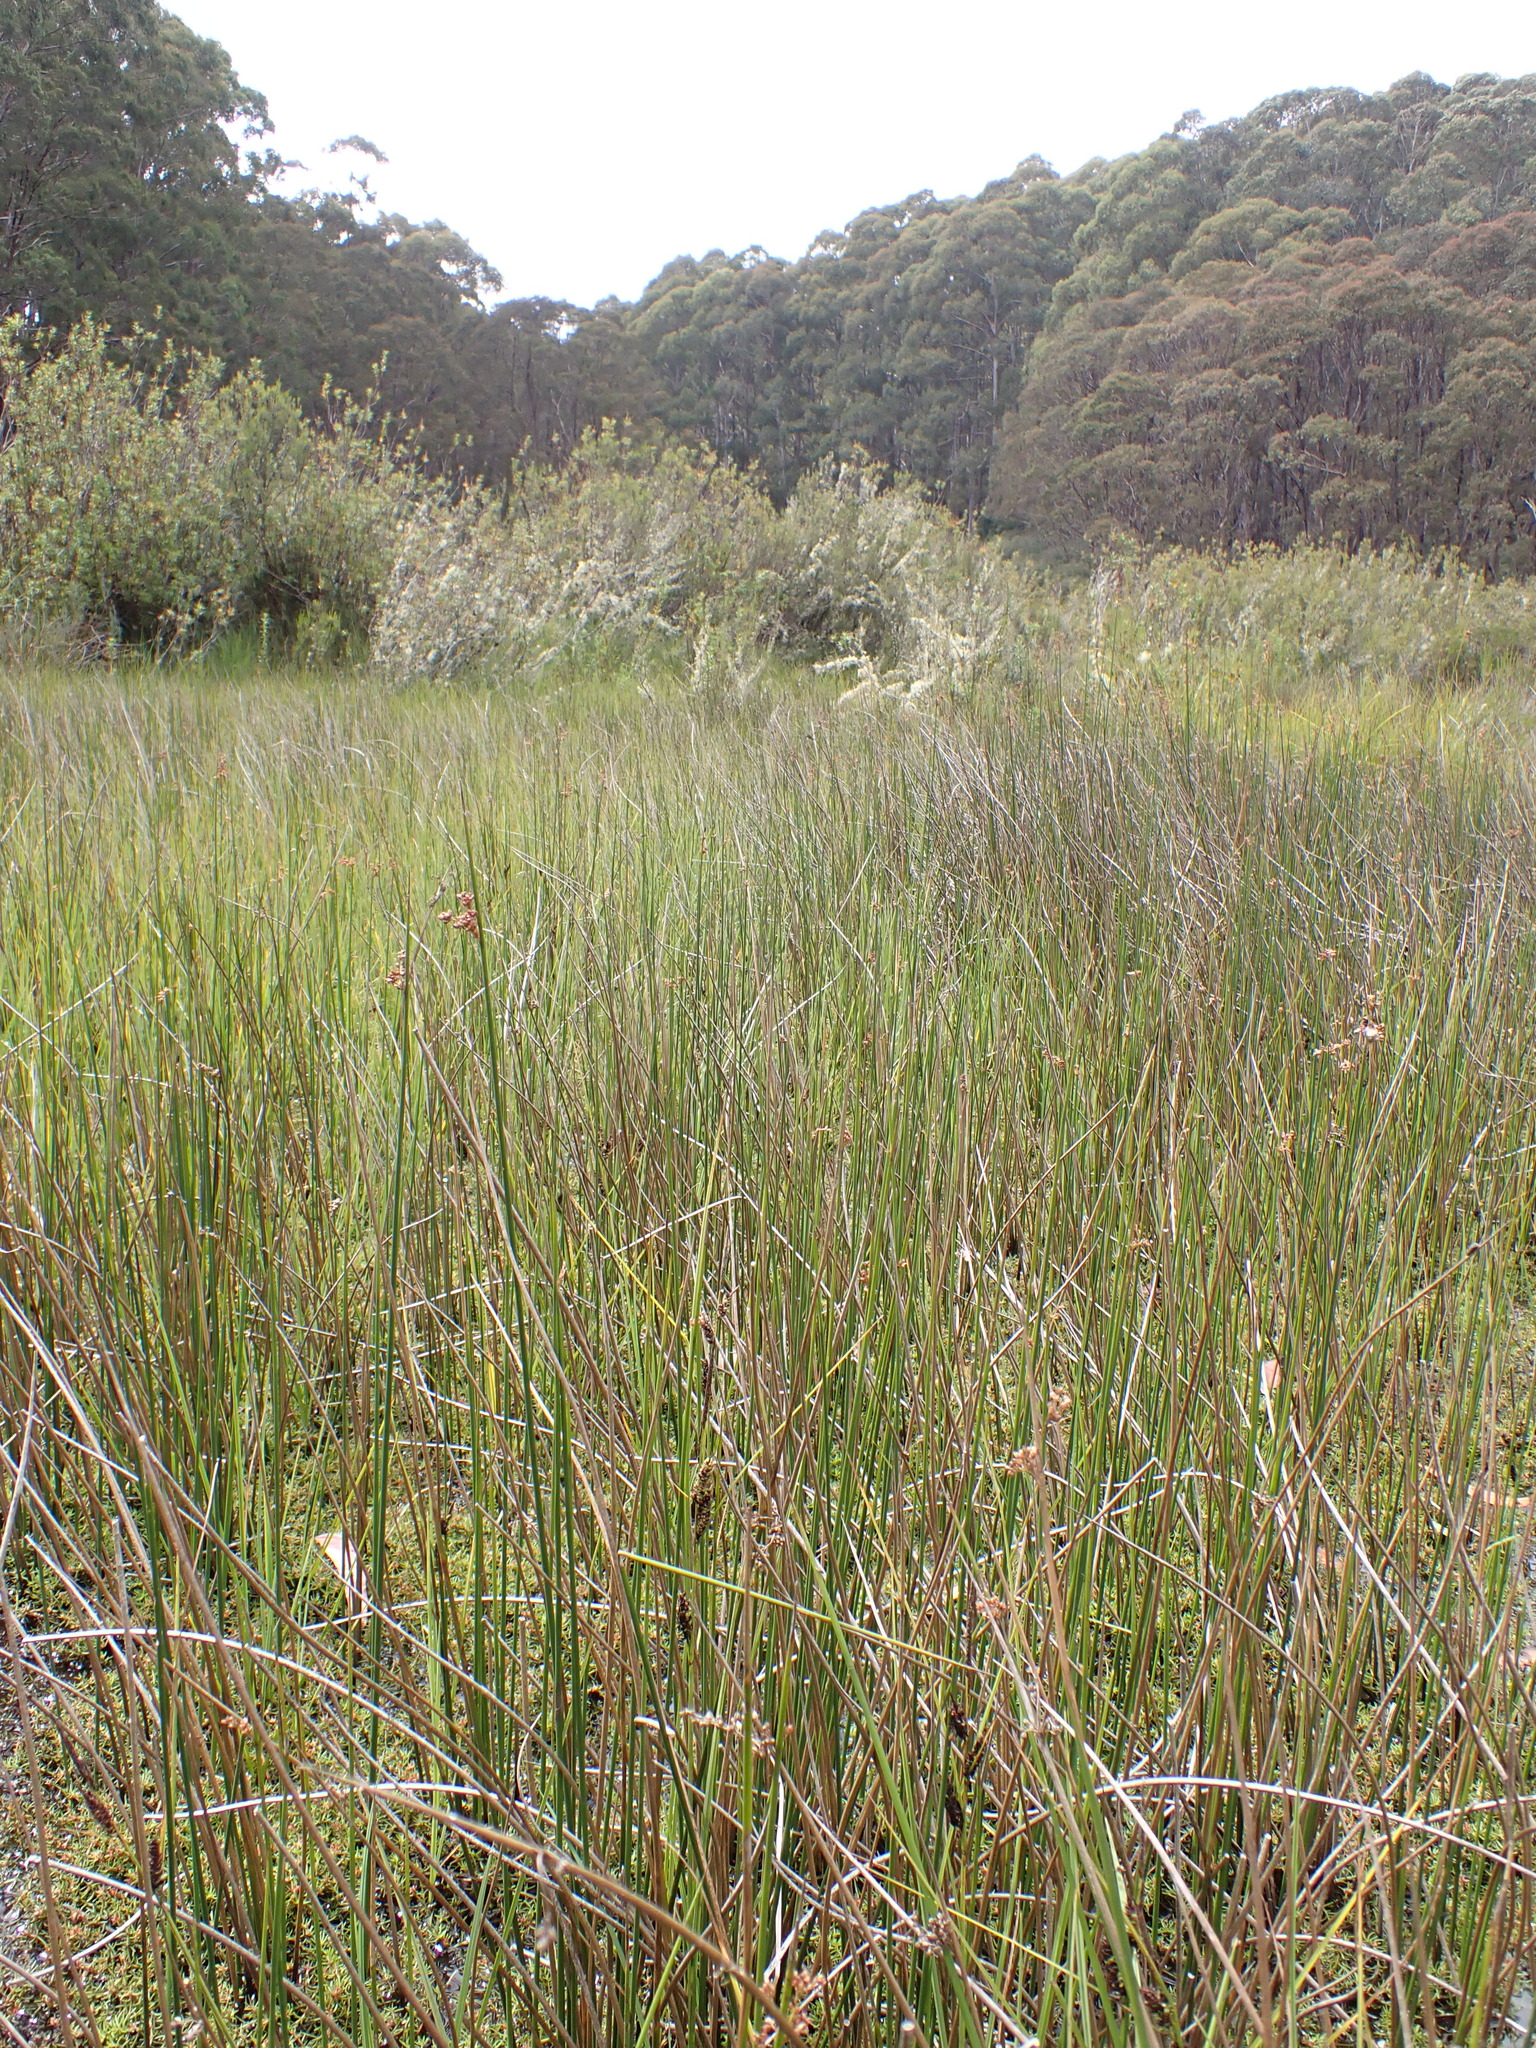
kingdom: Plantae
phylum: Tracheophyta
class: Liliopsida
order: Poales
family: Juncaceae
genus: Juncus
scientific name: Juncus alexandri
